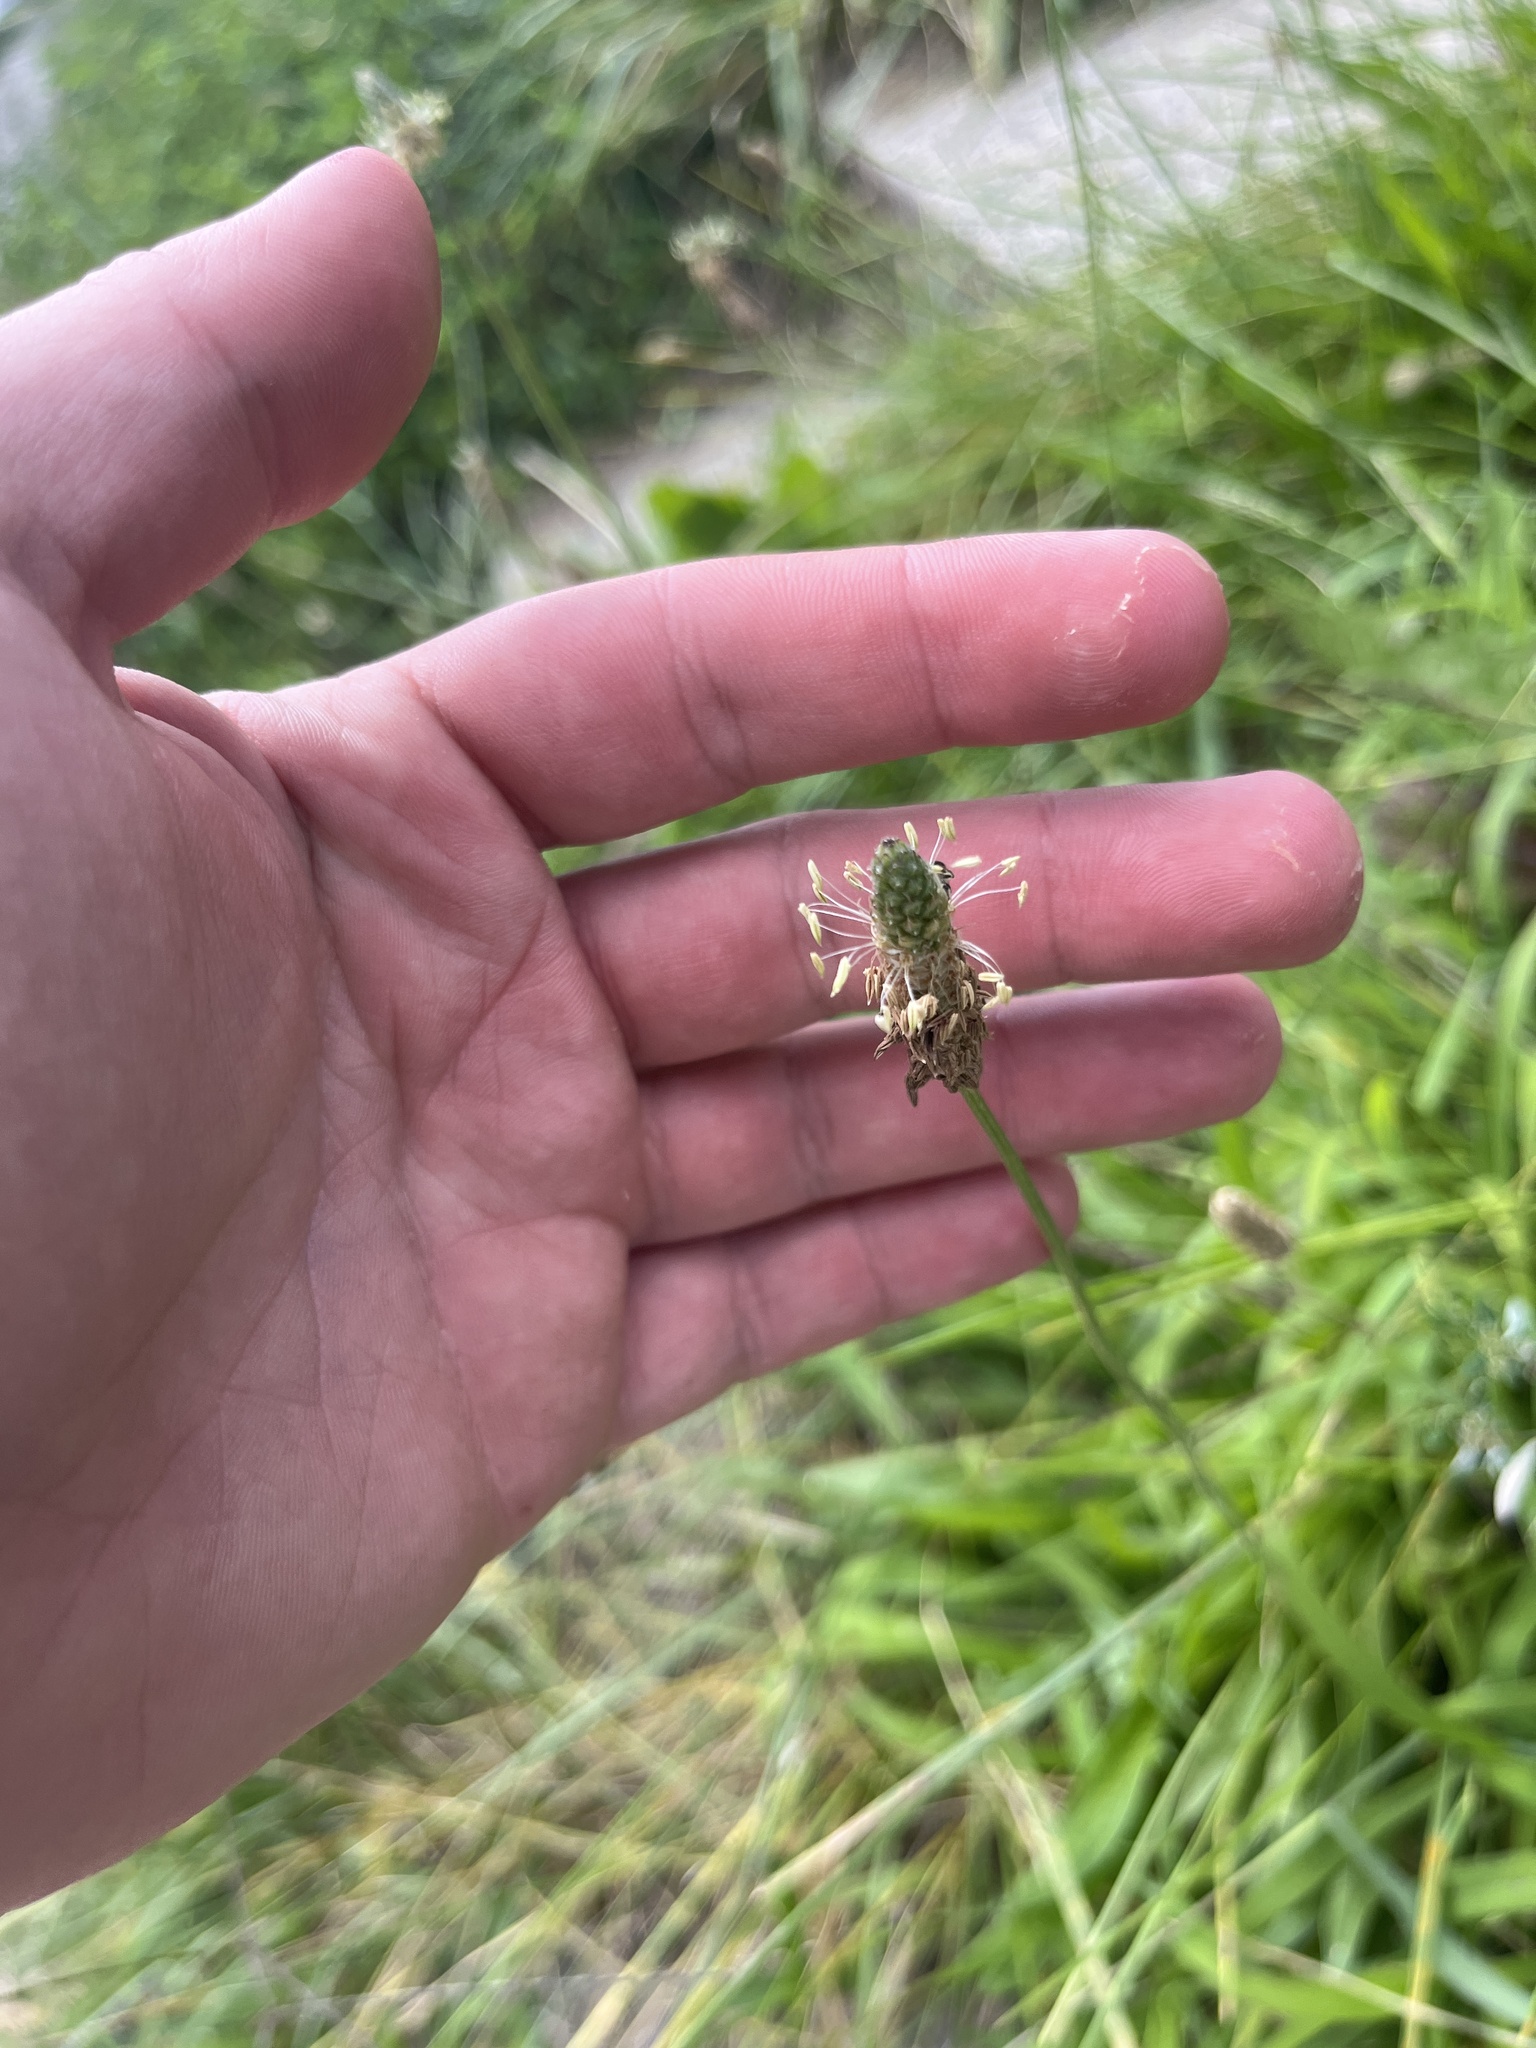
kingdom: Plantae
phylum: Tracheophyta
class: Magnoliopsida
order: Lamiales
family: Plantaginaceae
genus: Plantago
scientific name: Plantago lanceolata
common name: Ribwort plantain
